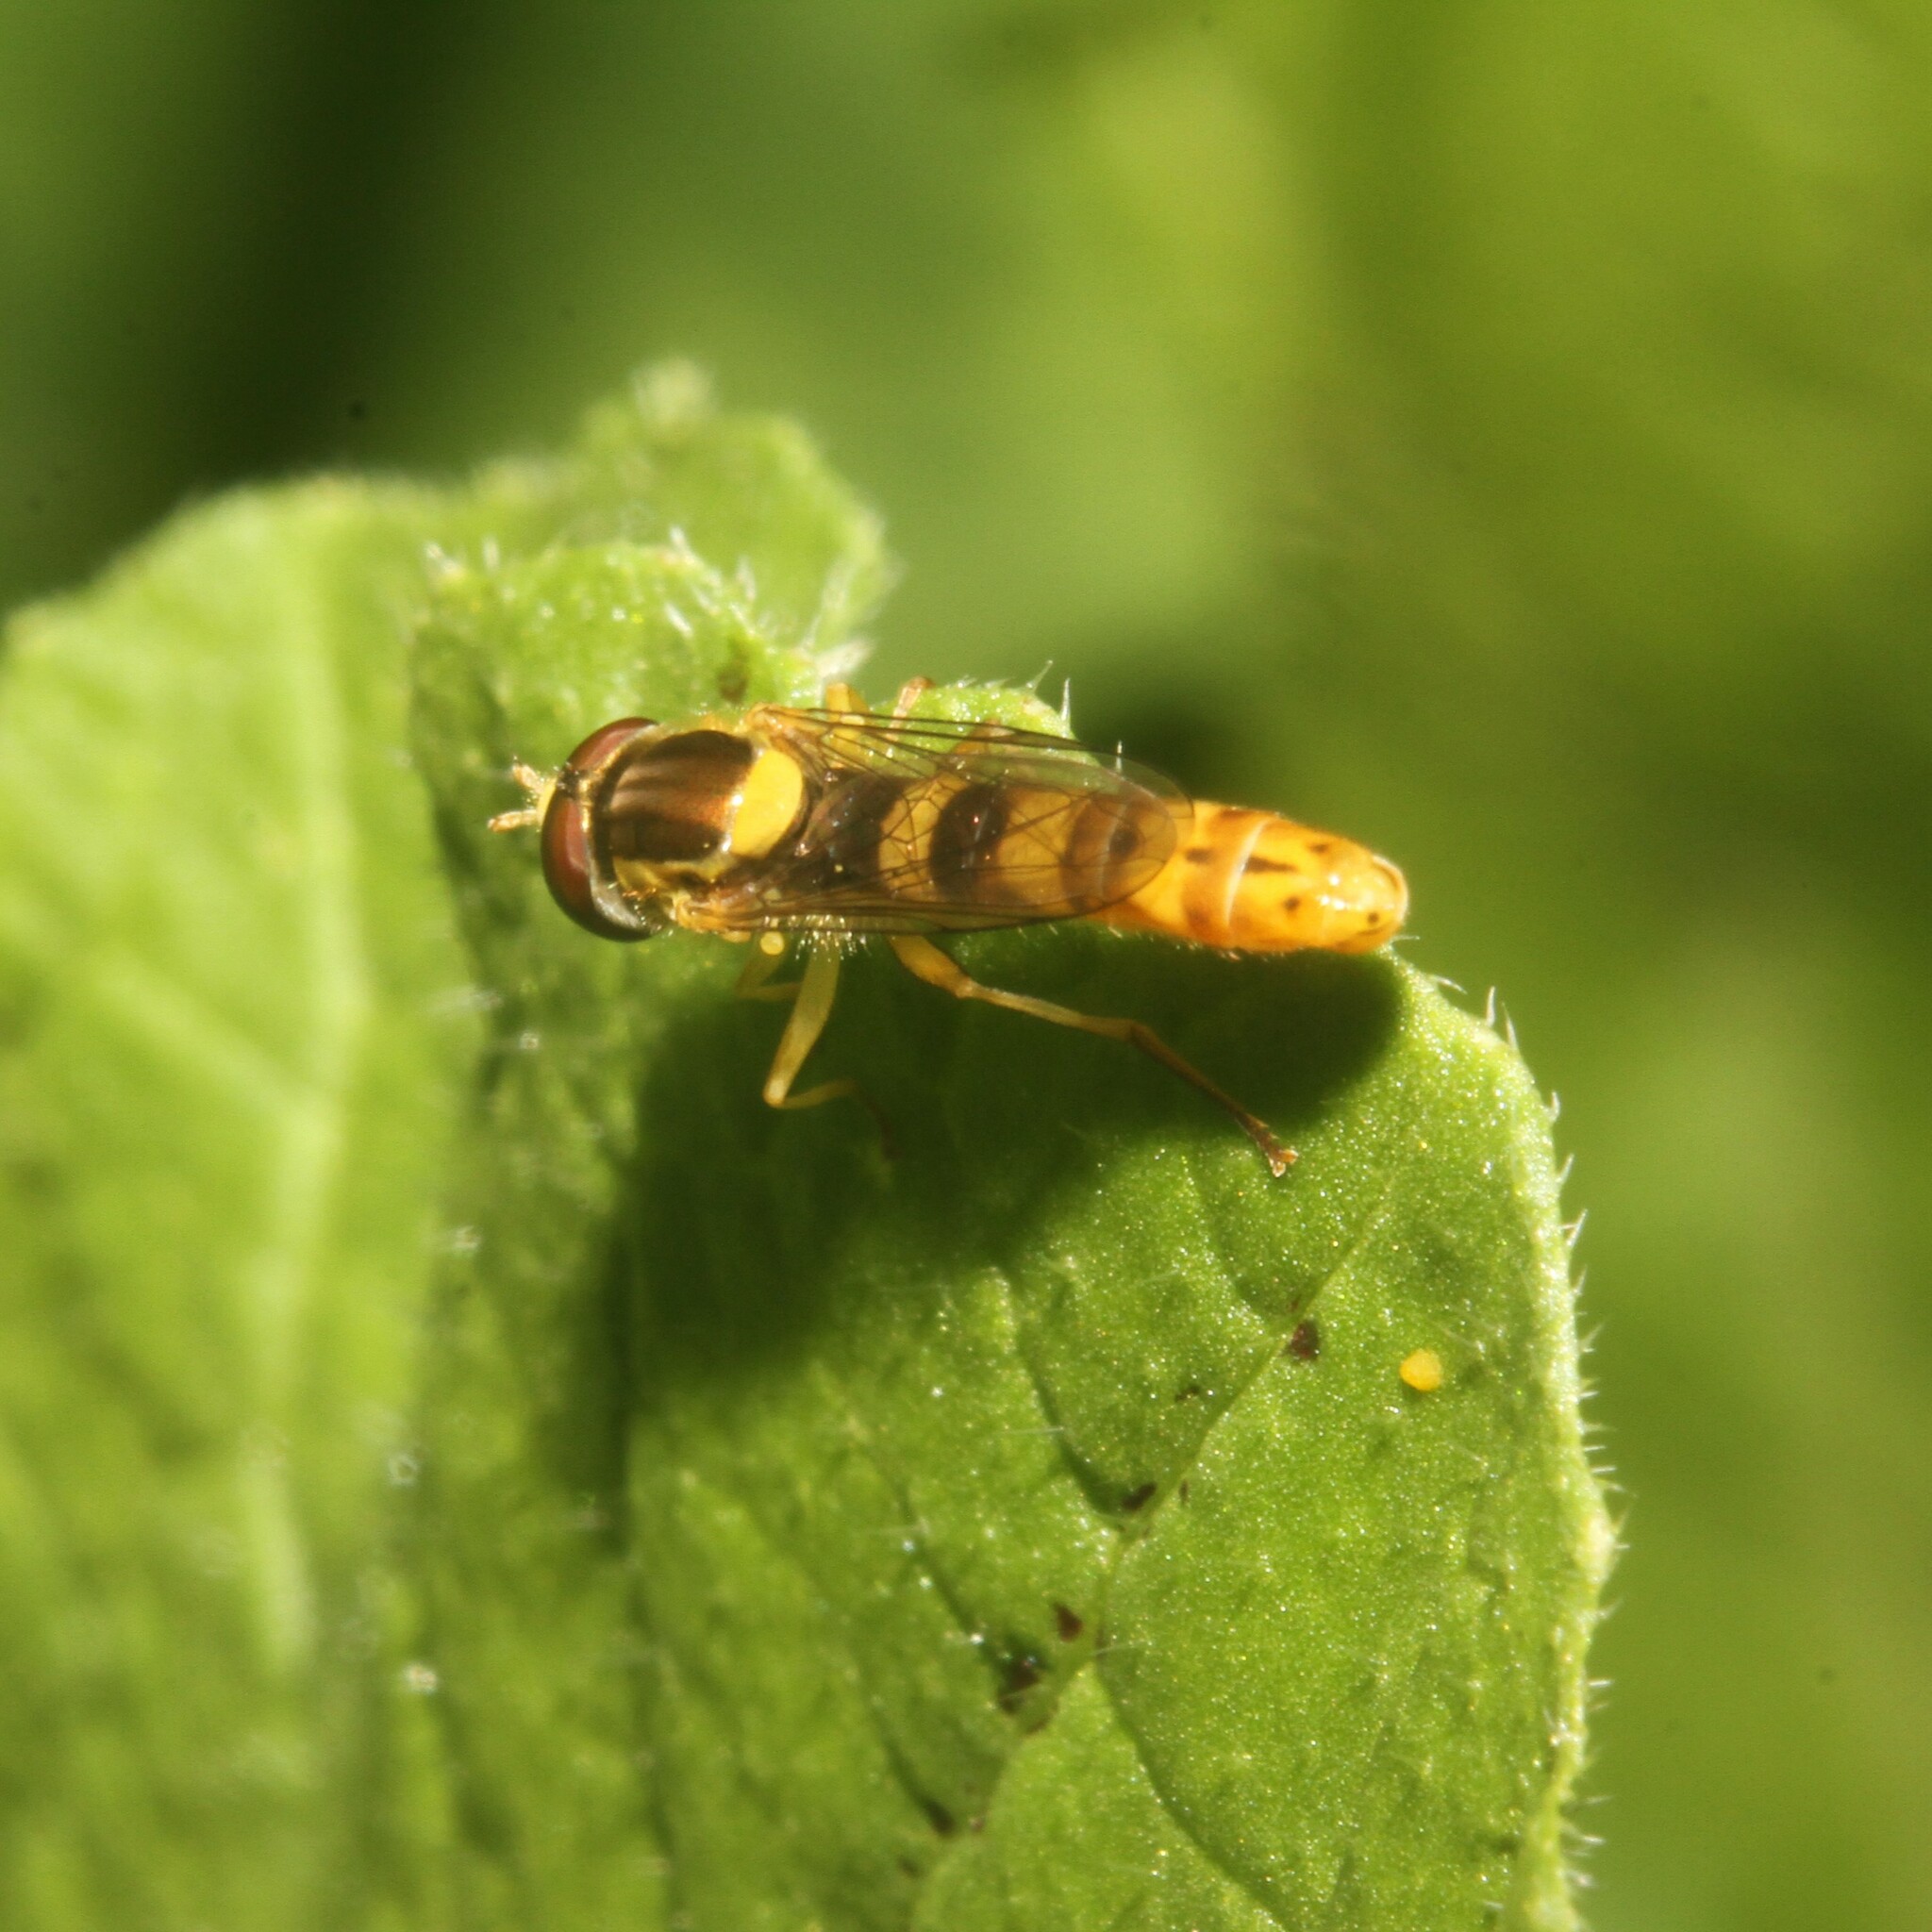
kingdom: Animalia
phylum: Arthropoda
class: Insecta
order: Diptera
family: Syrphidae
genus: Sphaerophoria
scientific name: Sphaerophoria scripta
